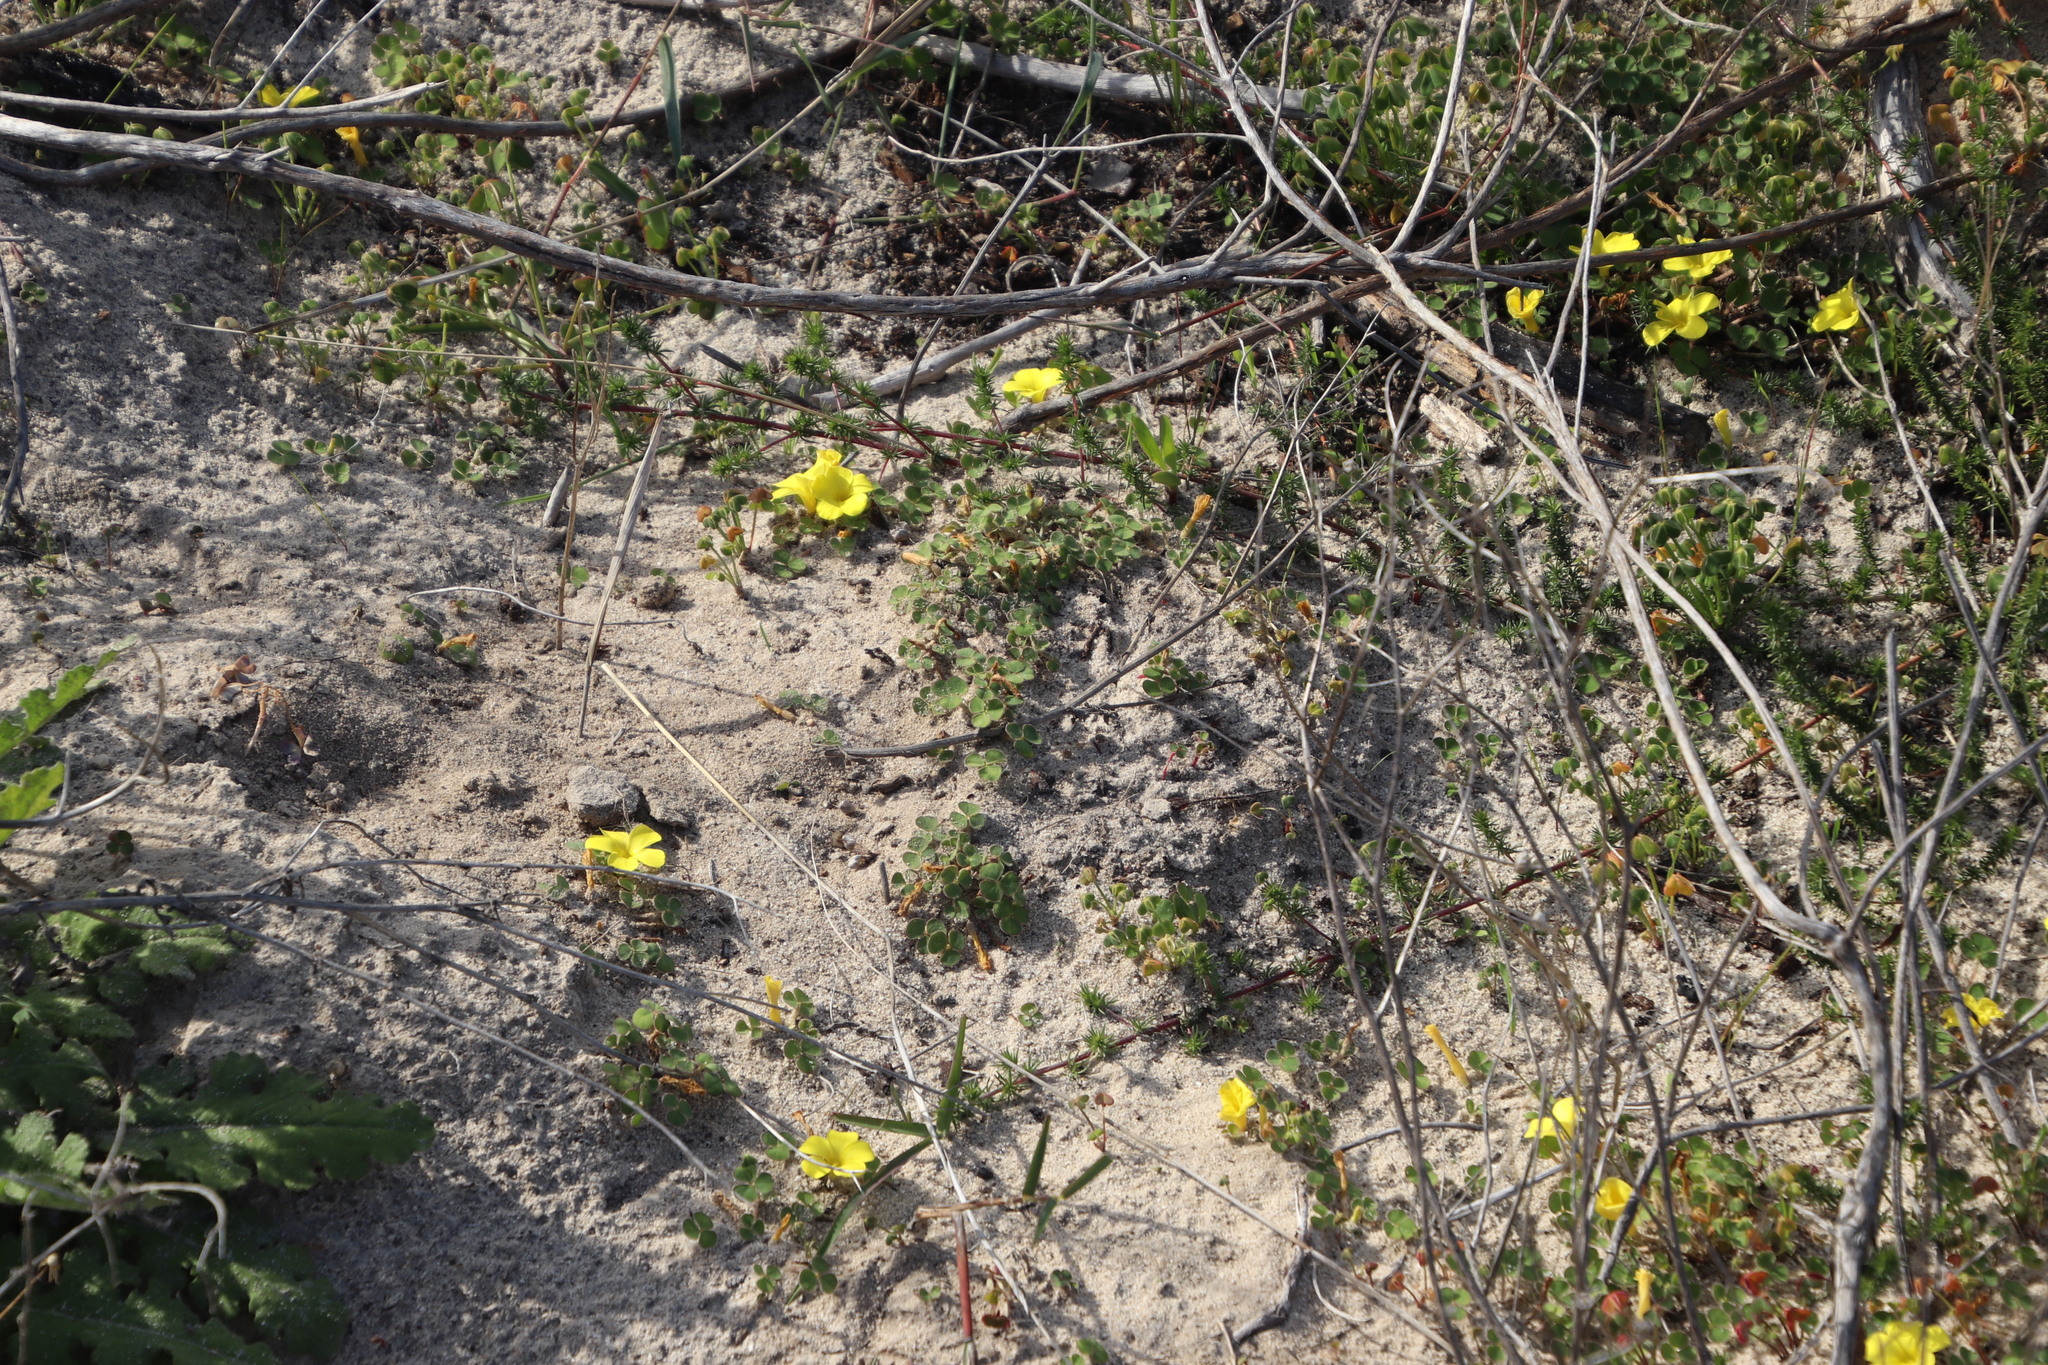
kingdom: Plantae
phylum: Tracheophyta
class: Magnoliopsida
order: Oxalidales
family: Oxalidaceae
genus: Oxalis
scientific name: Oxalis luteola
